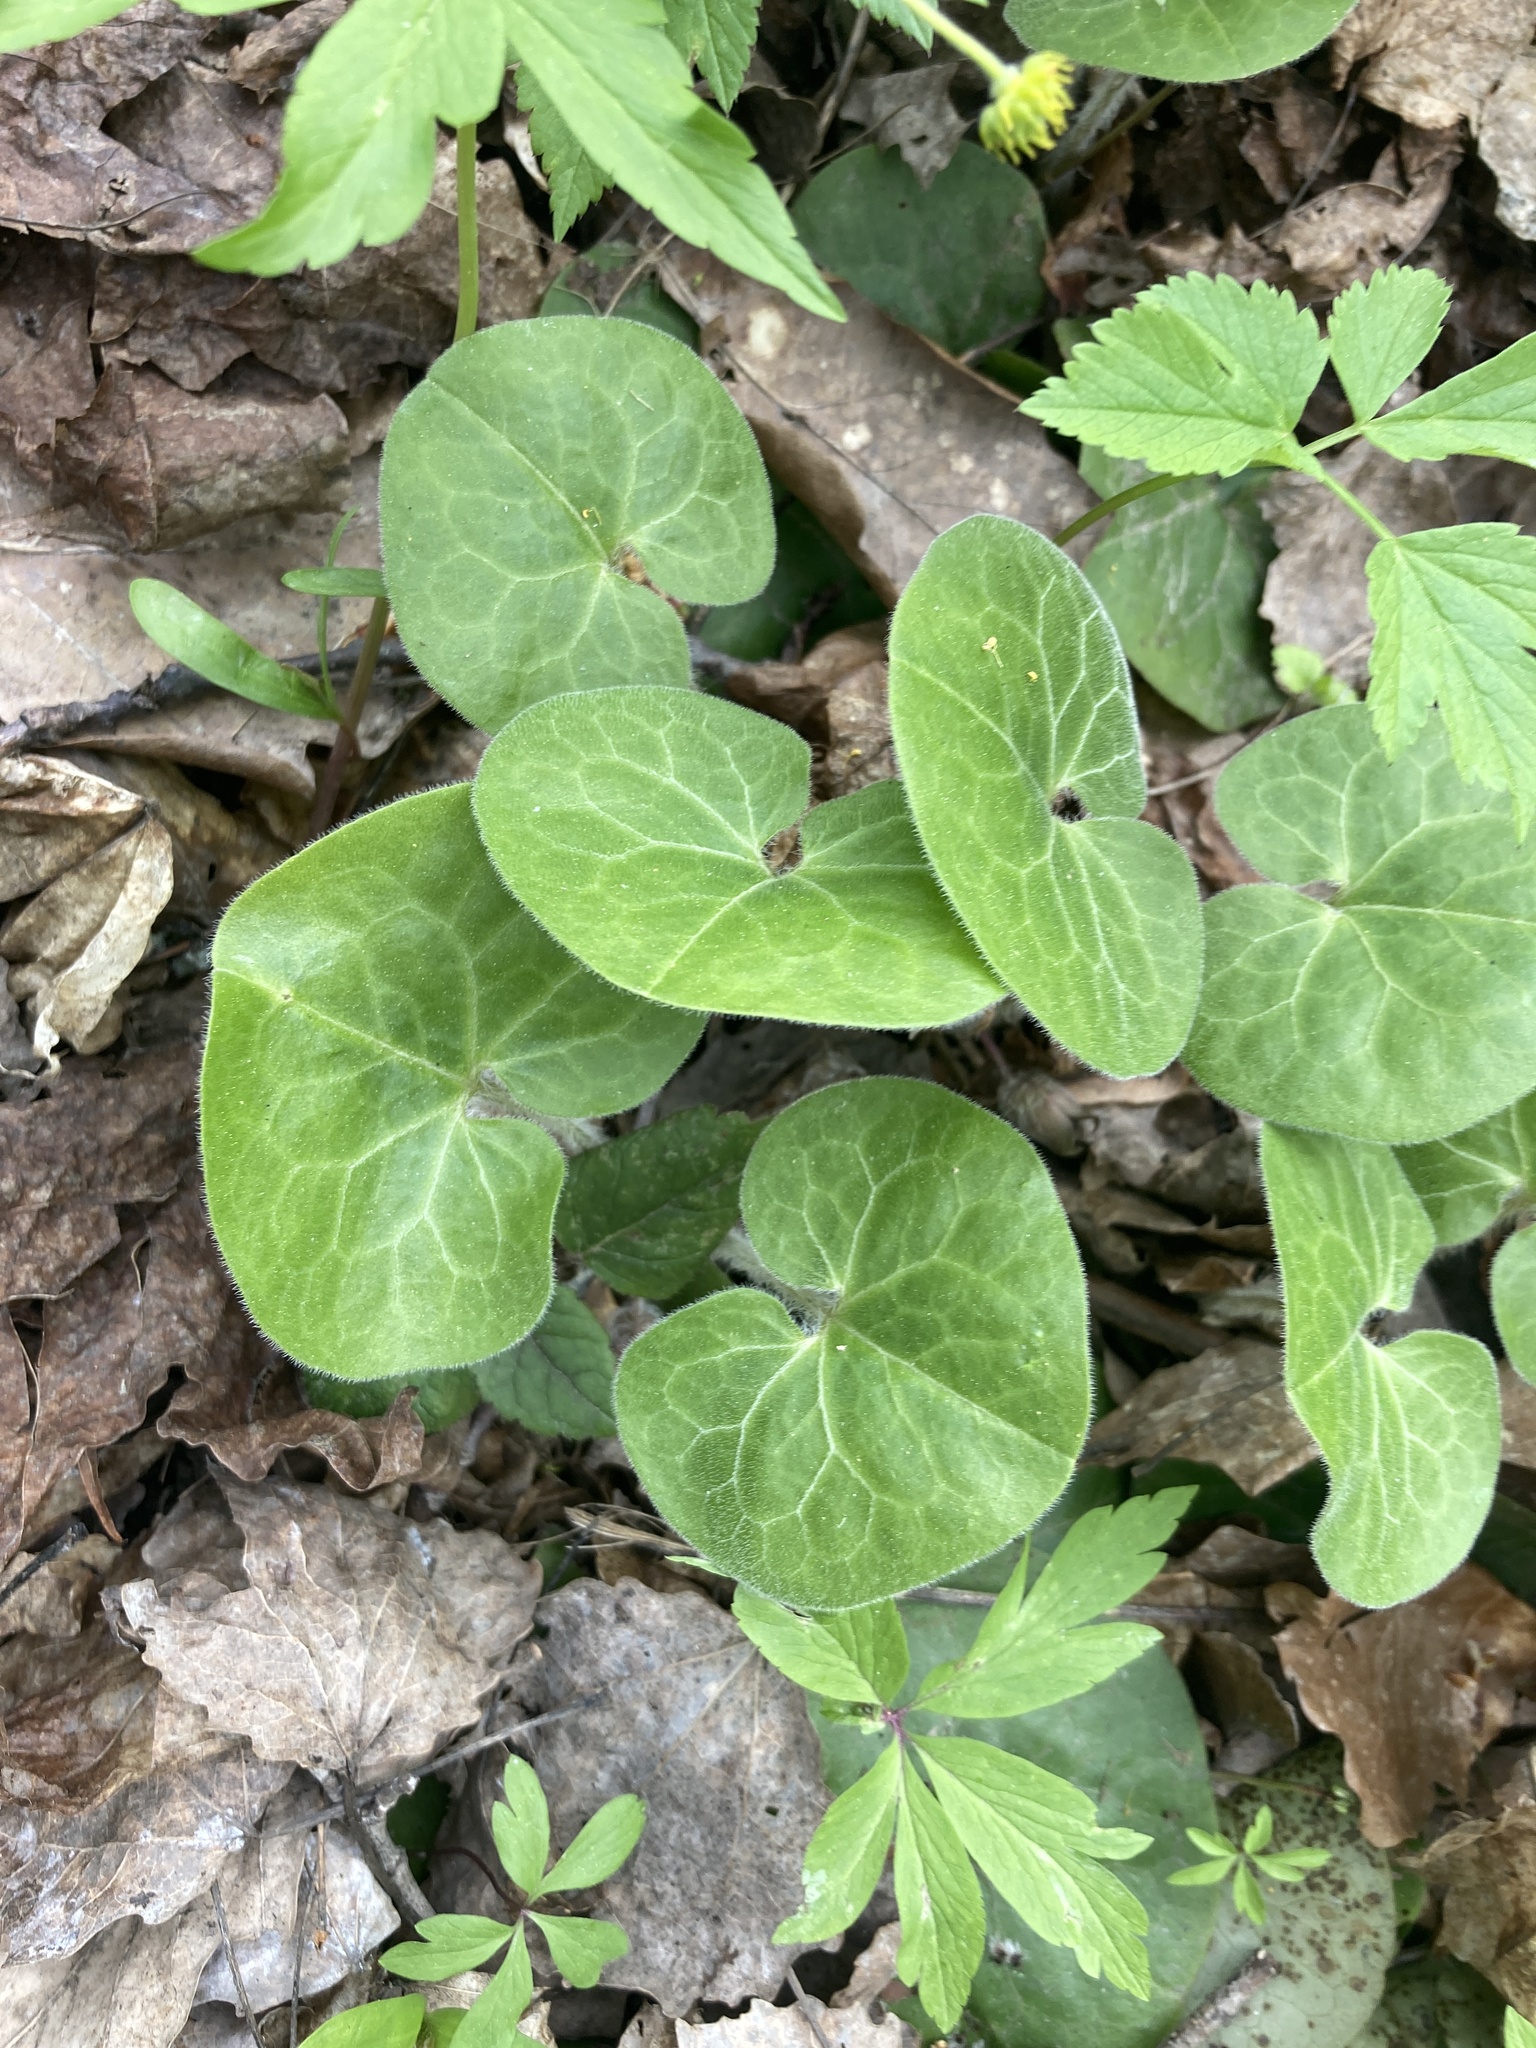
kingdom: Plantae
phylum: Tracheophyta
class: Magnoliopsida
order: Piperales
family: Aristolochiaceae
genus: Asarum
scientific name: Asarum europaeum
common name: Asarabacca
